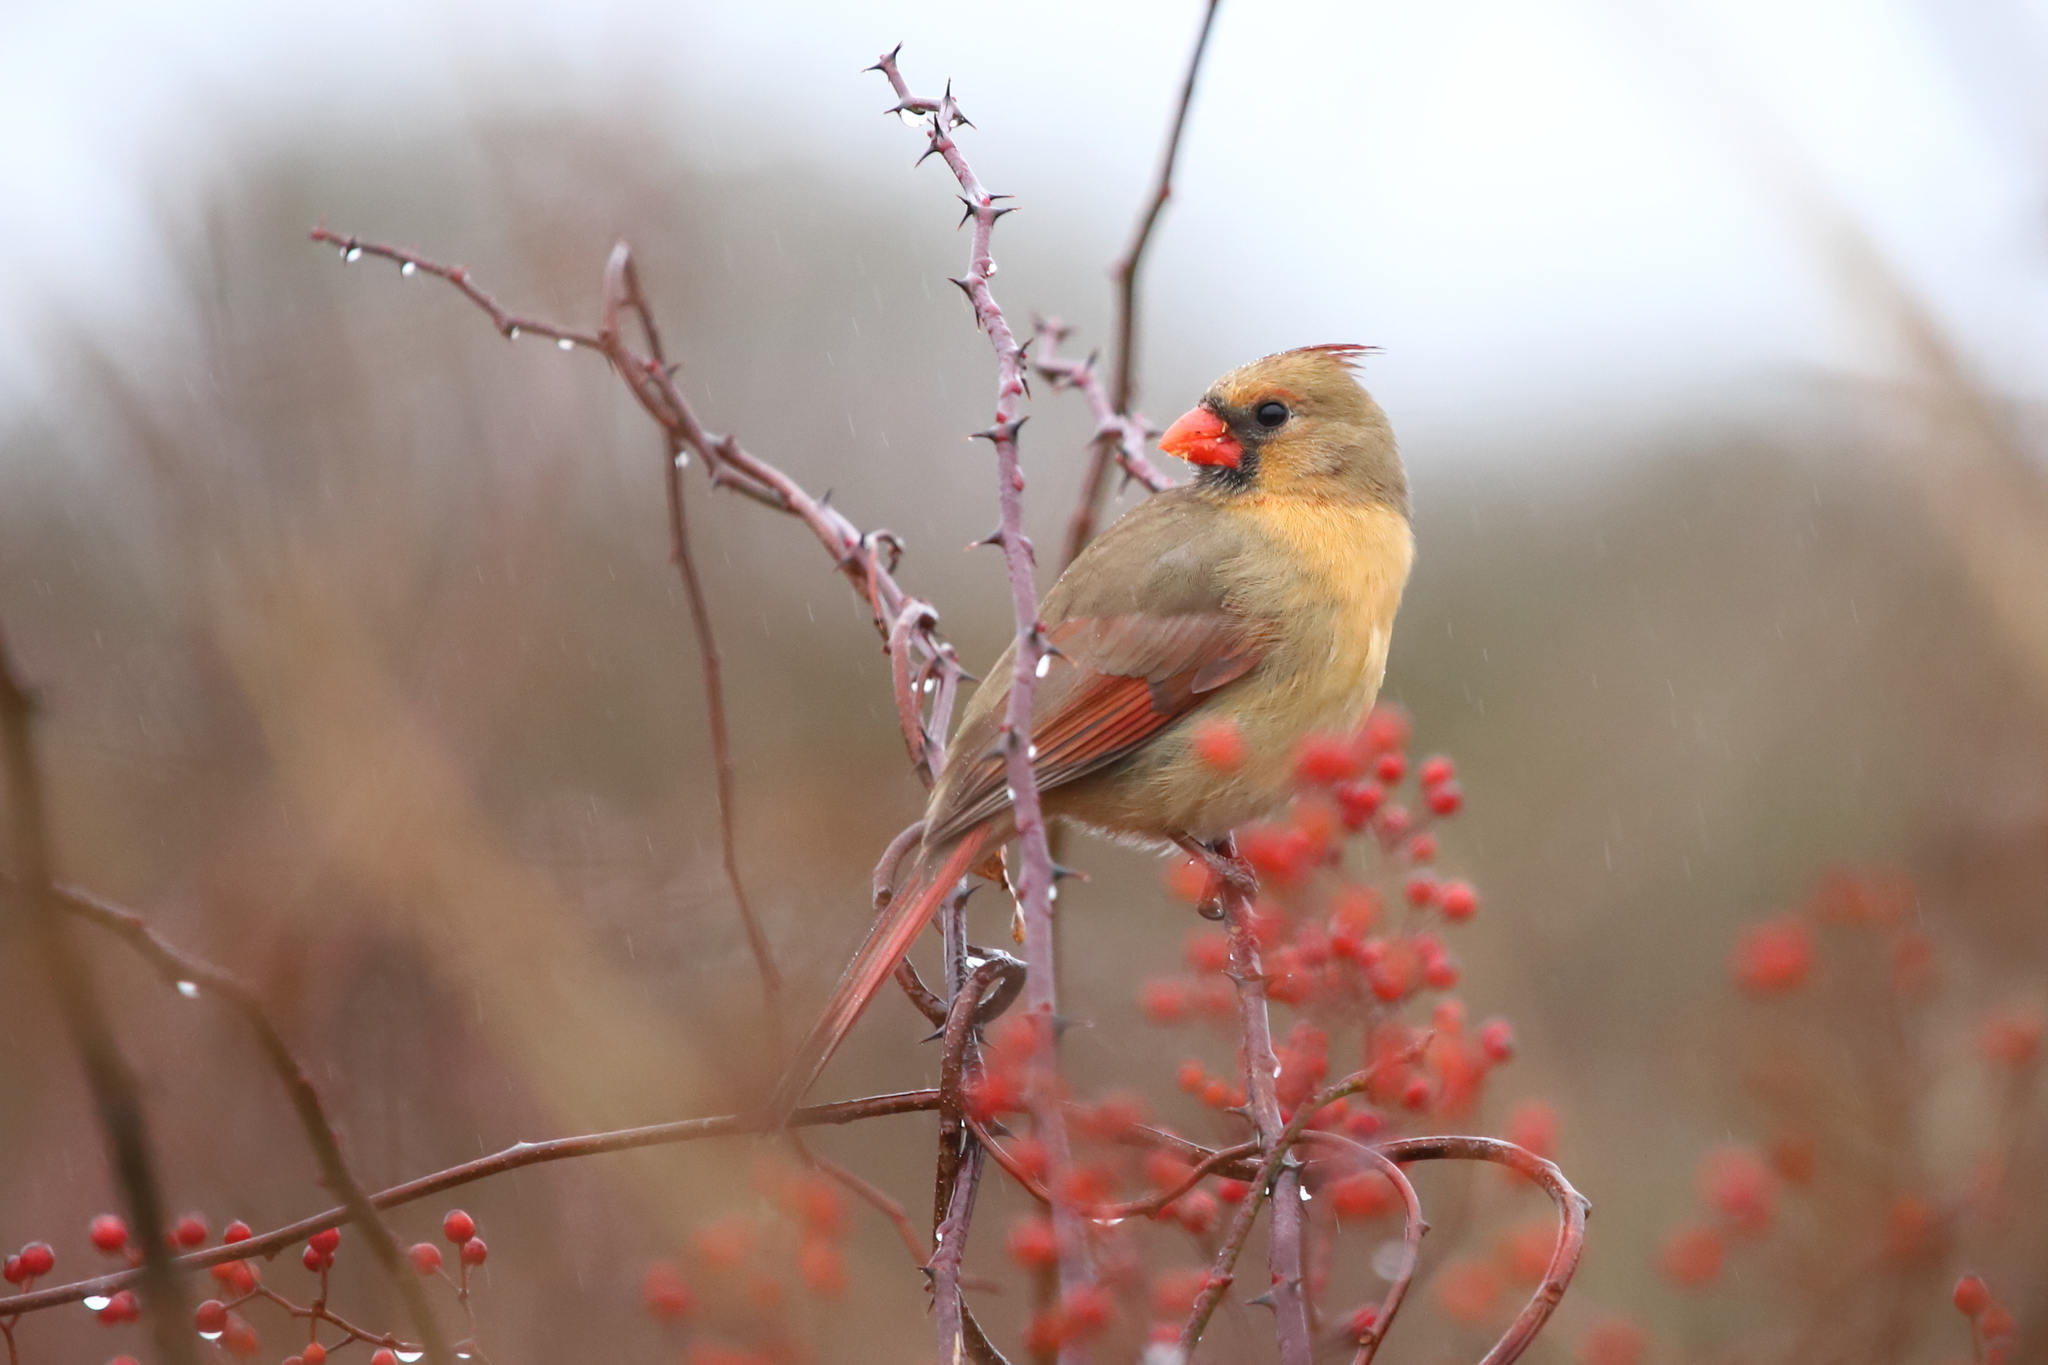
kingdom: Animalia
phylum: Chordata
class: Aves
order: Passeriformes
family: Cardinalidae
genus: Cardinalis
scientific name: Cardinalis cardinalis
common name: Northern cardinal
